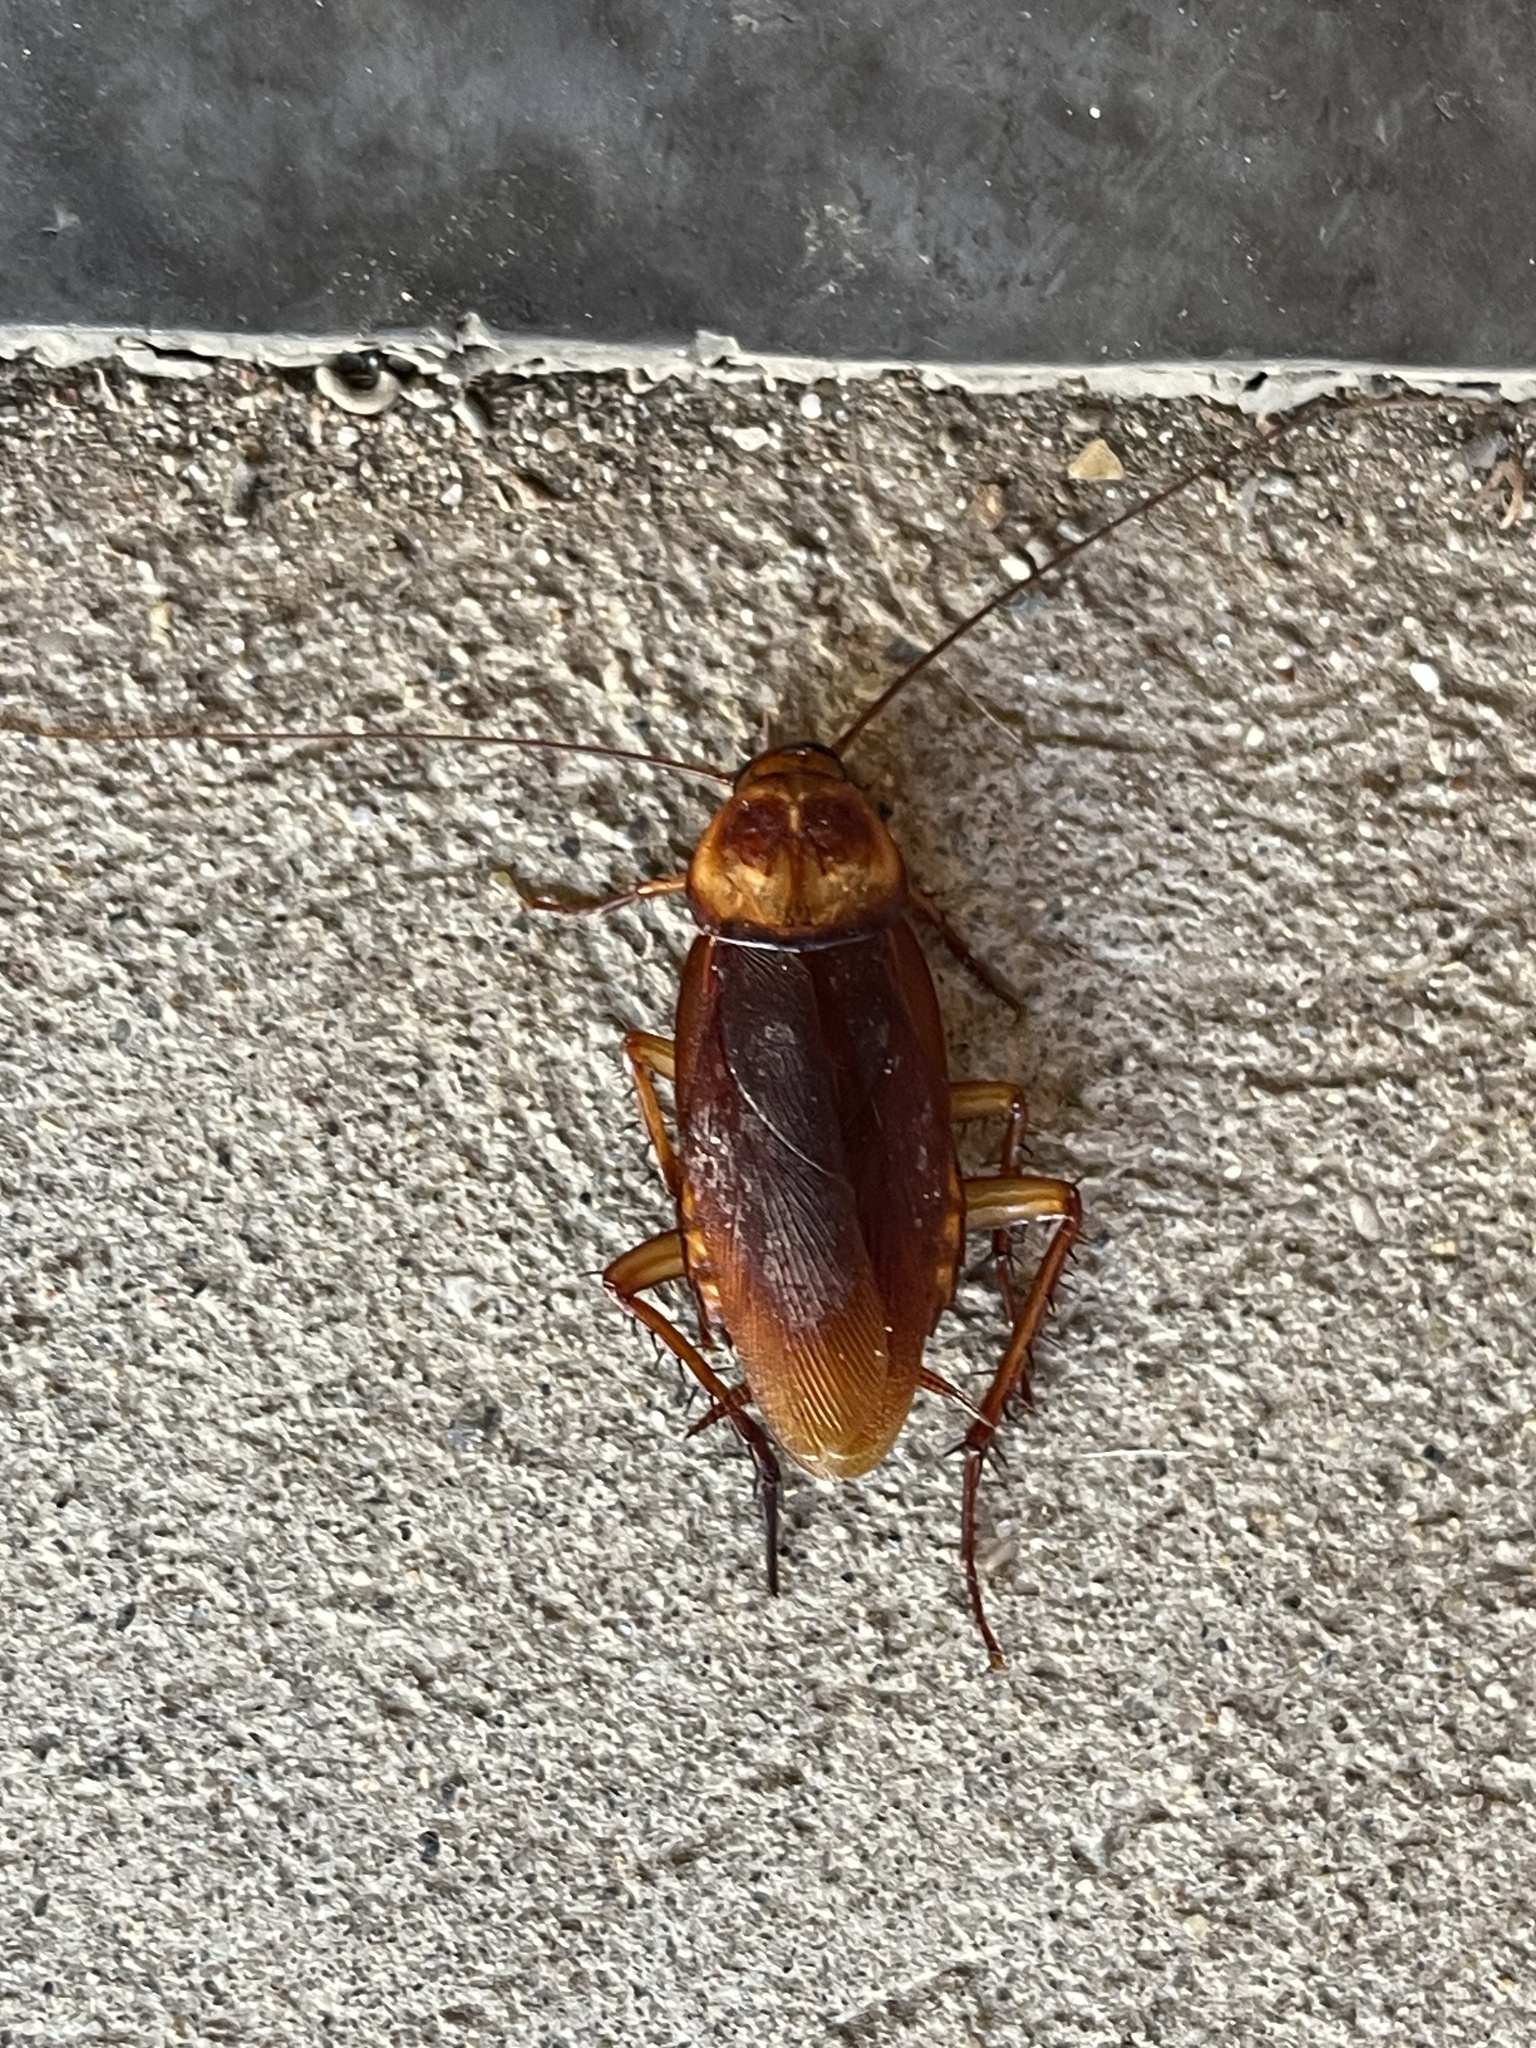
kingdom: Animalia
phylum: Arthropoda
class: Insecta
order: Blattodea
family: Blattidae
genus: Periplaneta
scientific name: Periplaneta americana
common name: American cockroach
